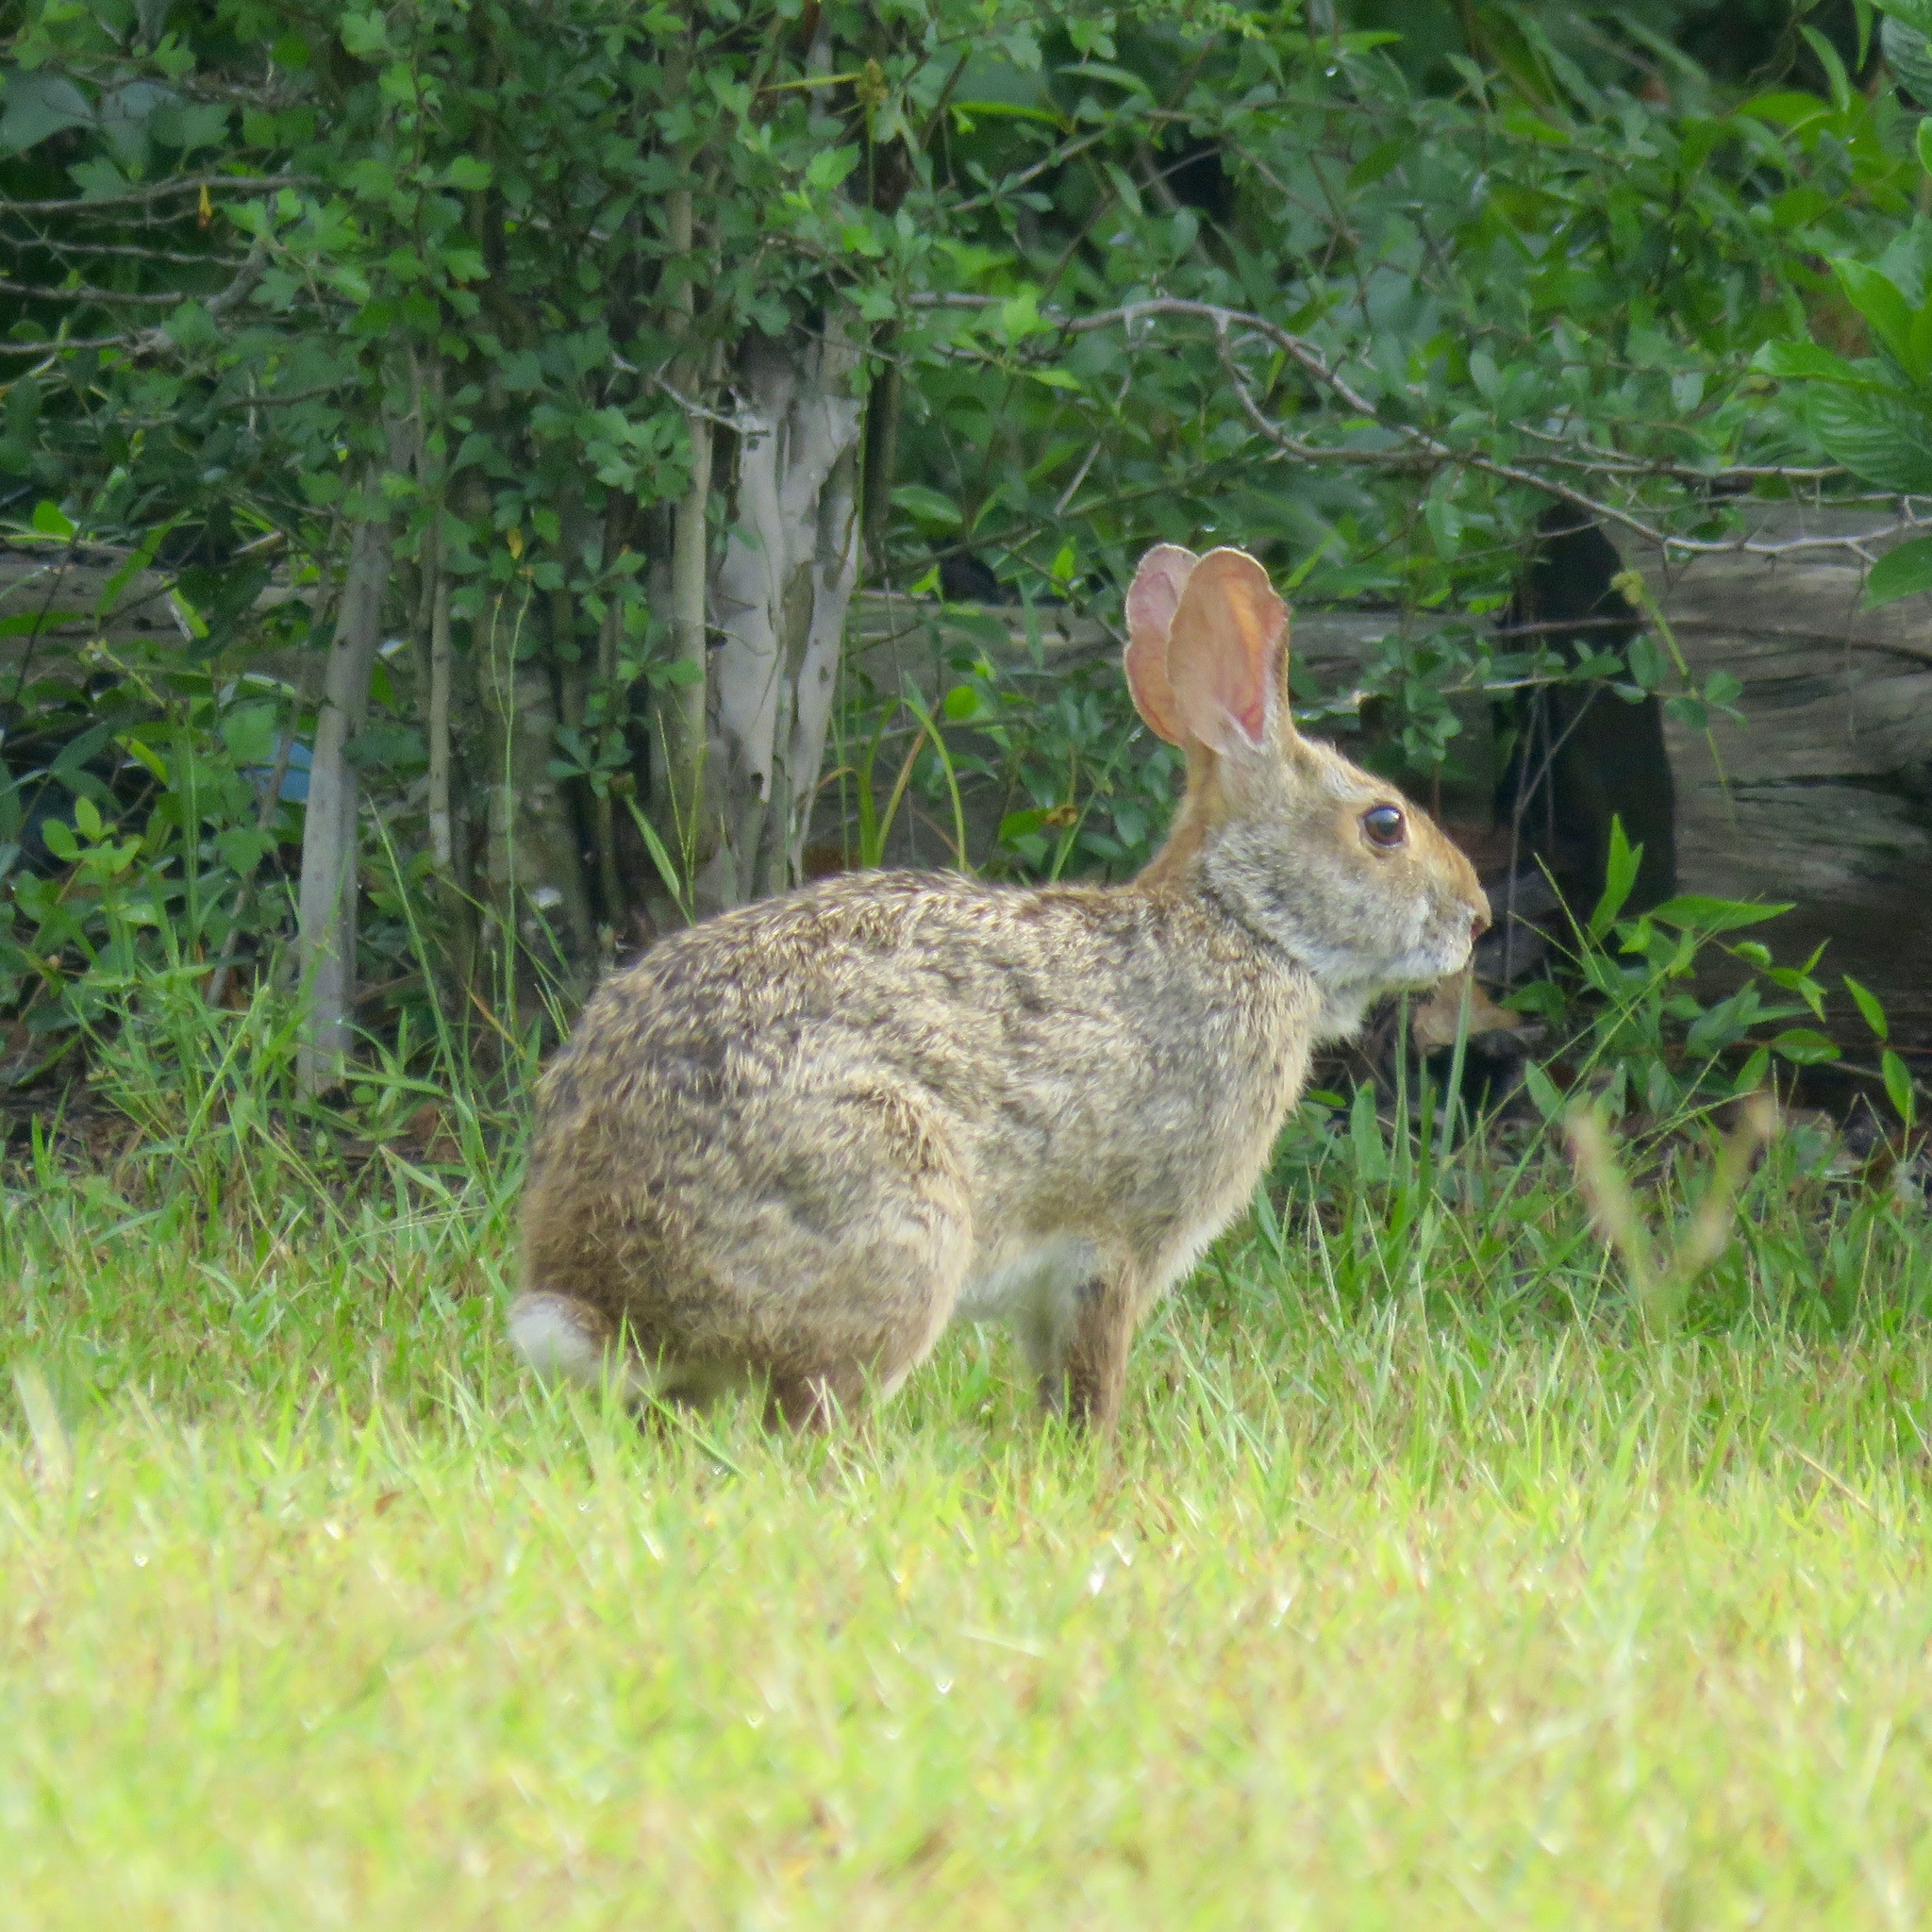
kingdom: Animalia
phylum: Chordata
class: Mammalia
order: Lagomorpha
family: Leporidae
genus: Sylvilagus
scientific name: Sylvilagus aquaticus
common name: Swamp rabbit
